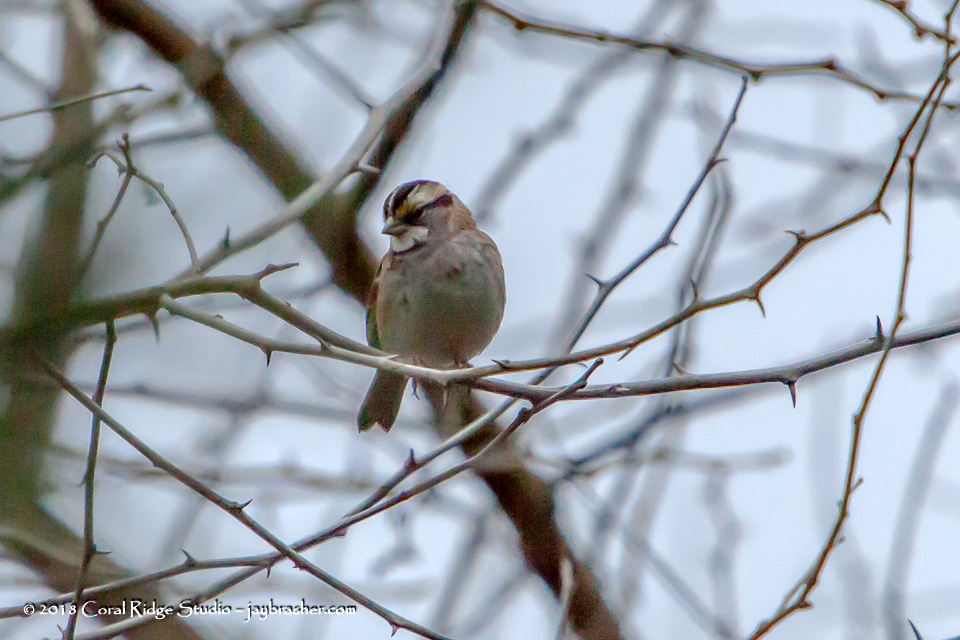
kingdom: Animalia
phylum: Chordata
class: Aves
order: Passeriformes
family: Passerellidae
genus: Zonotrichia
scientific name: Zonotrichia albicollis
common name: White-throated sparrow
